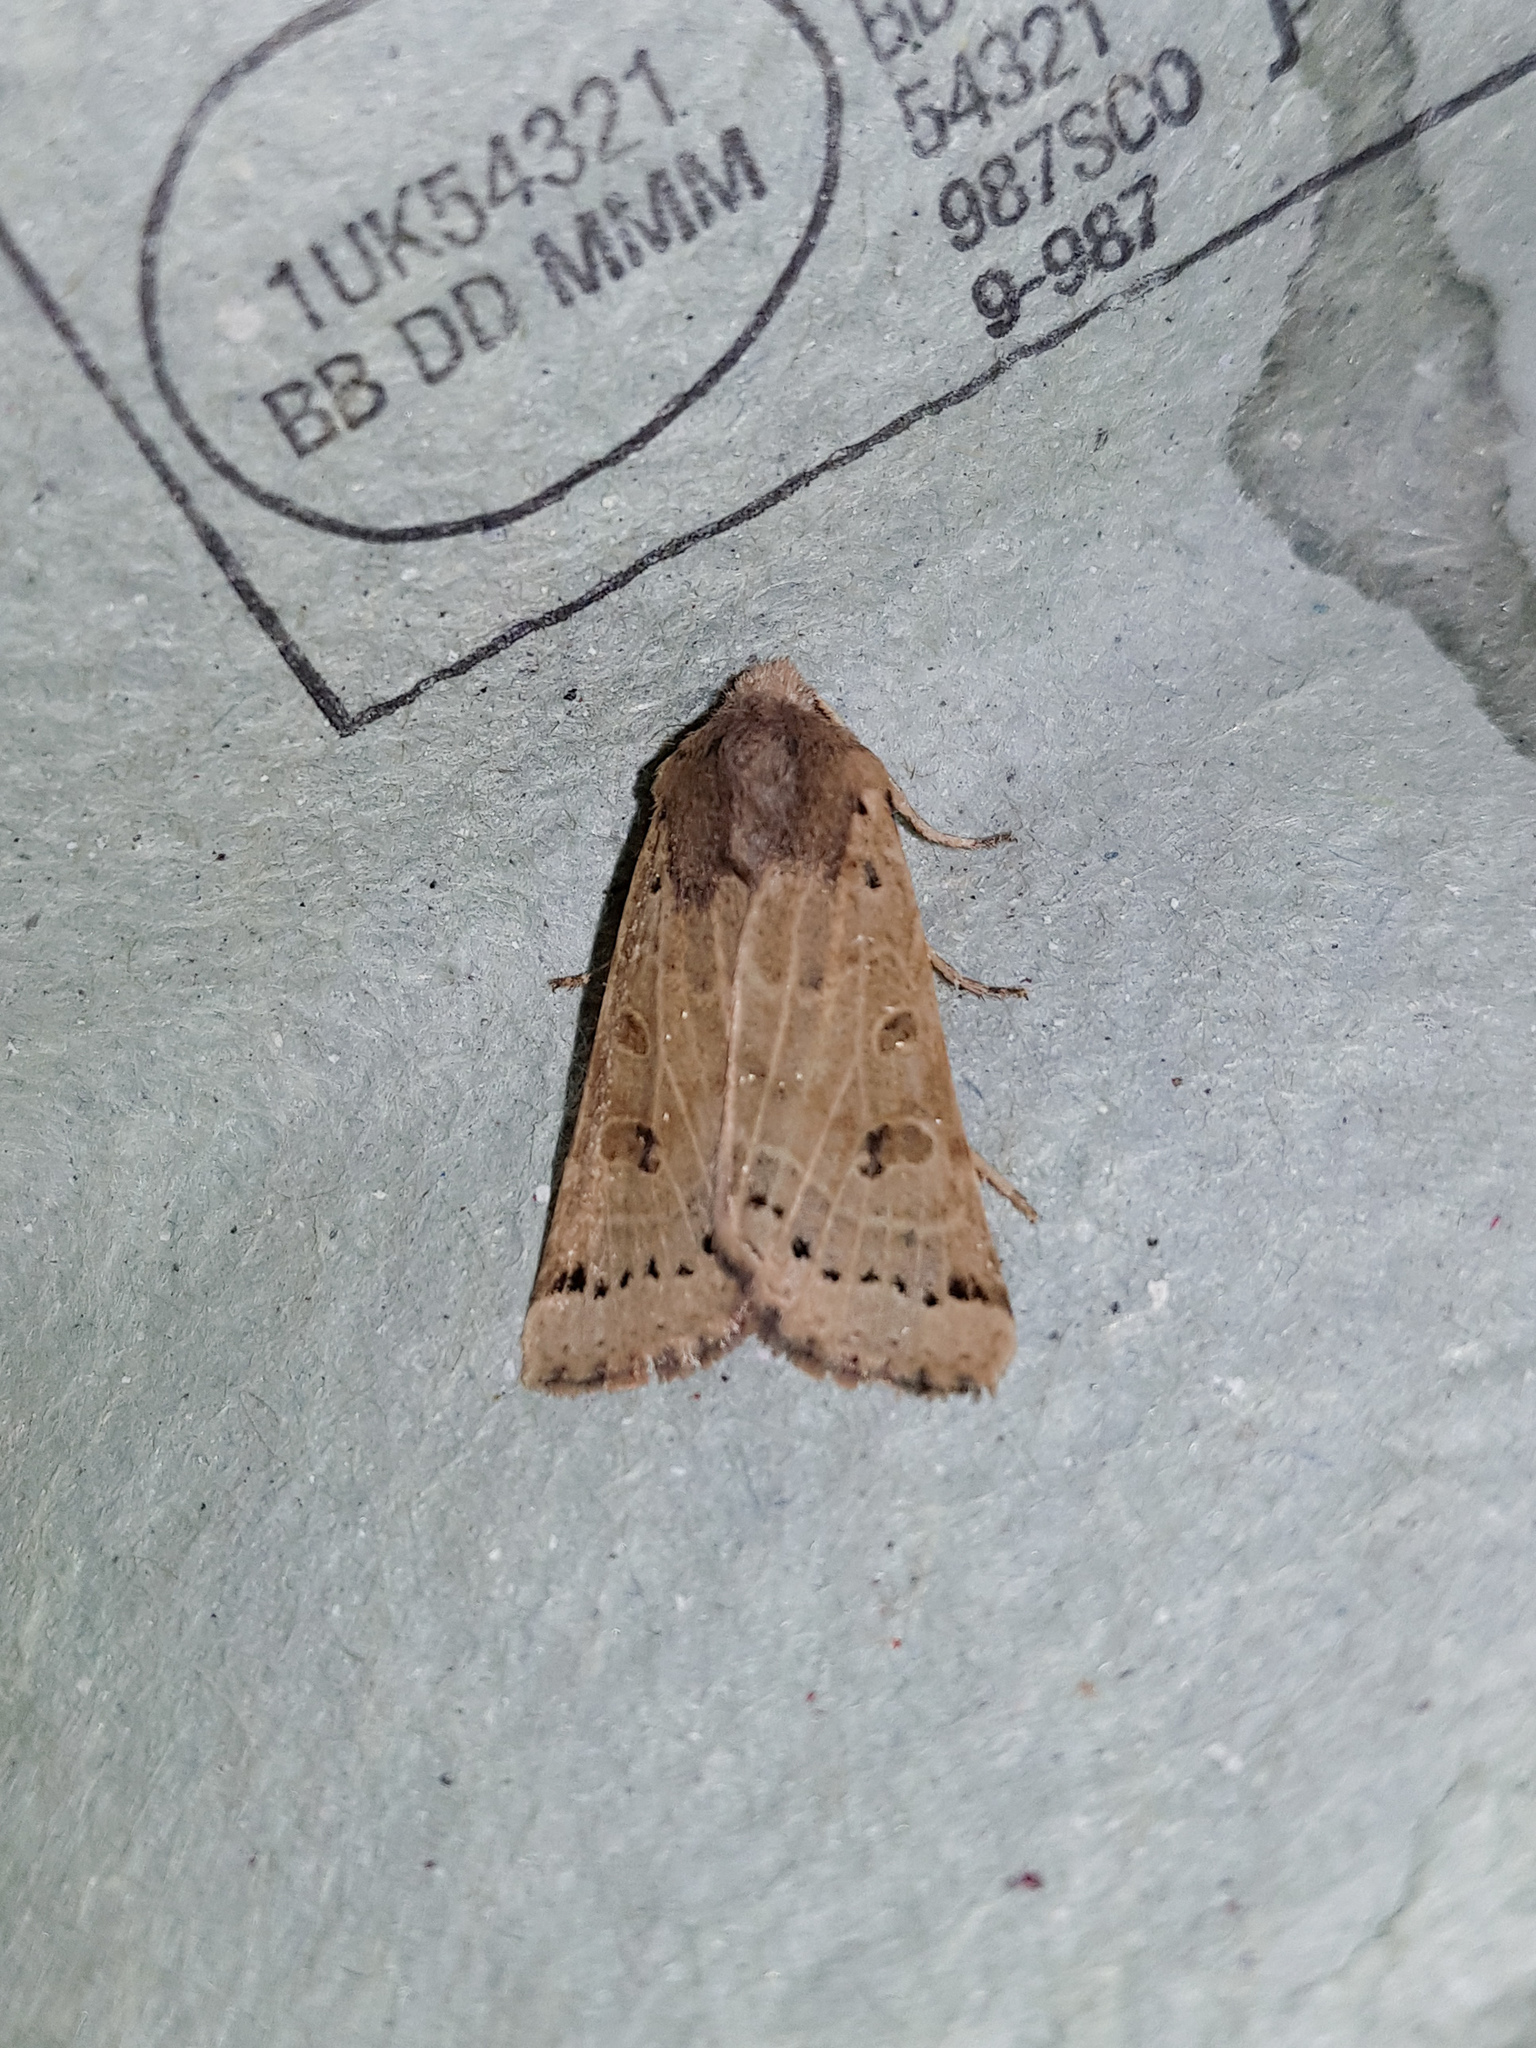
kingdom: Animalia
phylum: Arthropoda
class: Insecta
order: Lepidoptera
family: Noctuidae
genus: Agrochola
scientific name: Agrochola lunosa
